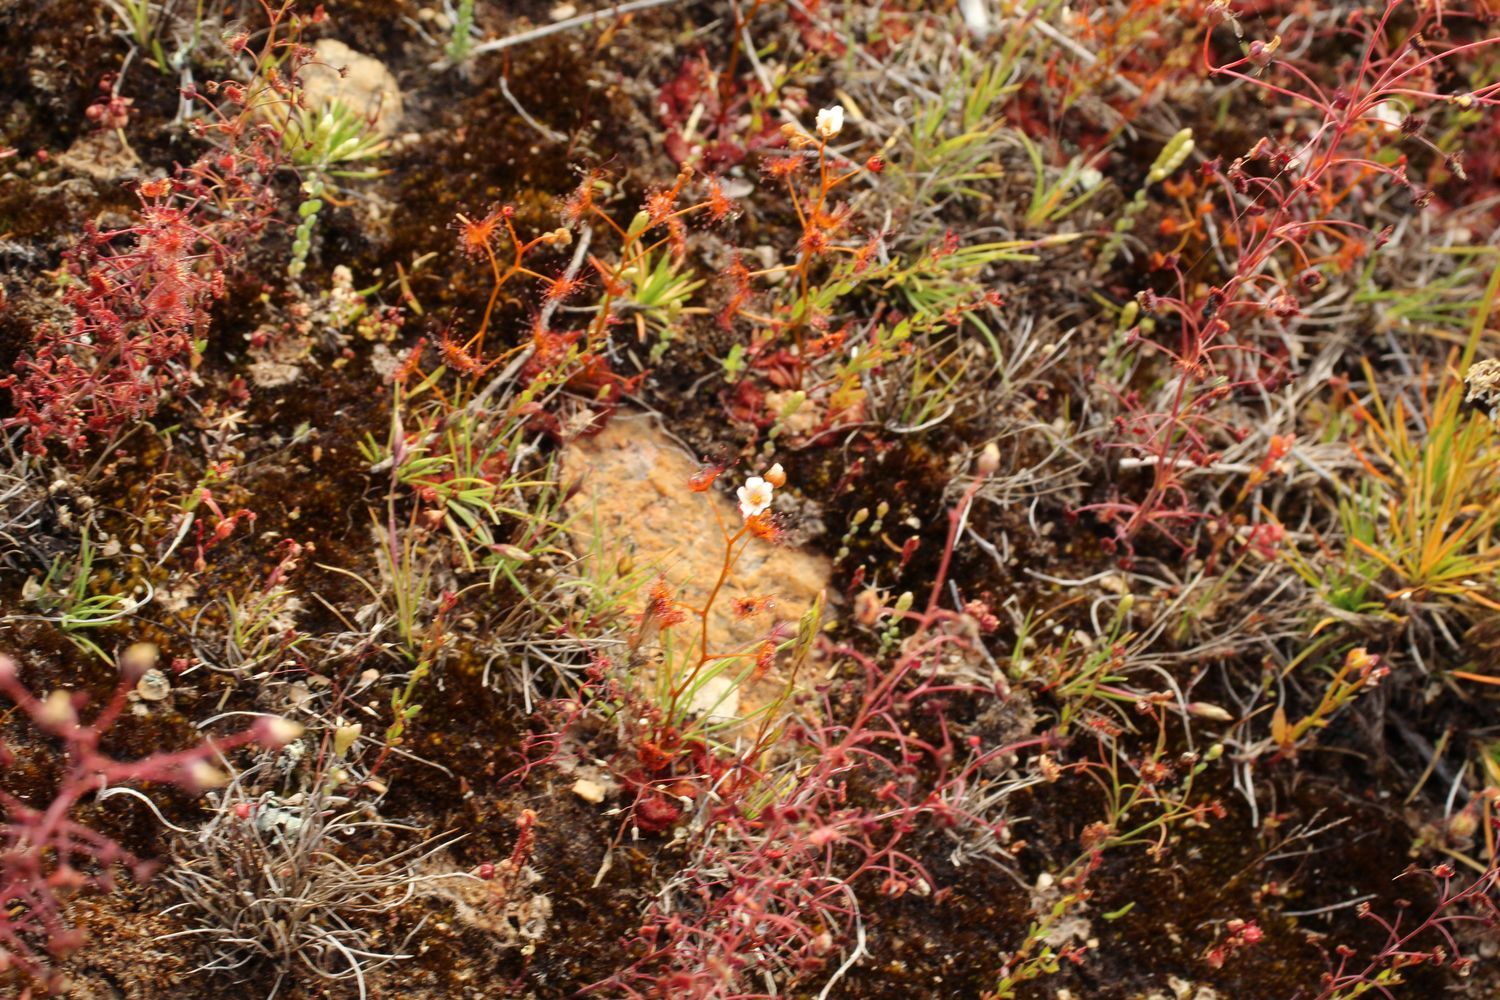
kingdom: Plantae
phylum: Tracheophyta
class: Magnoliopsida
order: Caryophyllales
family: Droseraceae
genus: Drosera
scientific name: Drosera yilgarnensis
